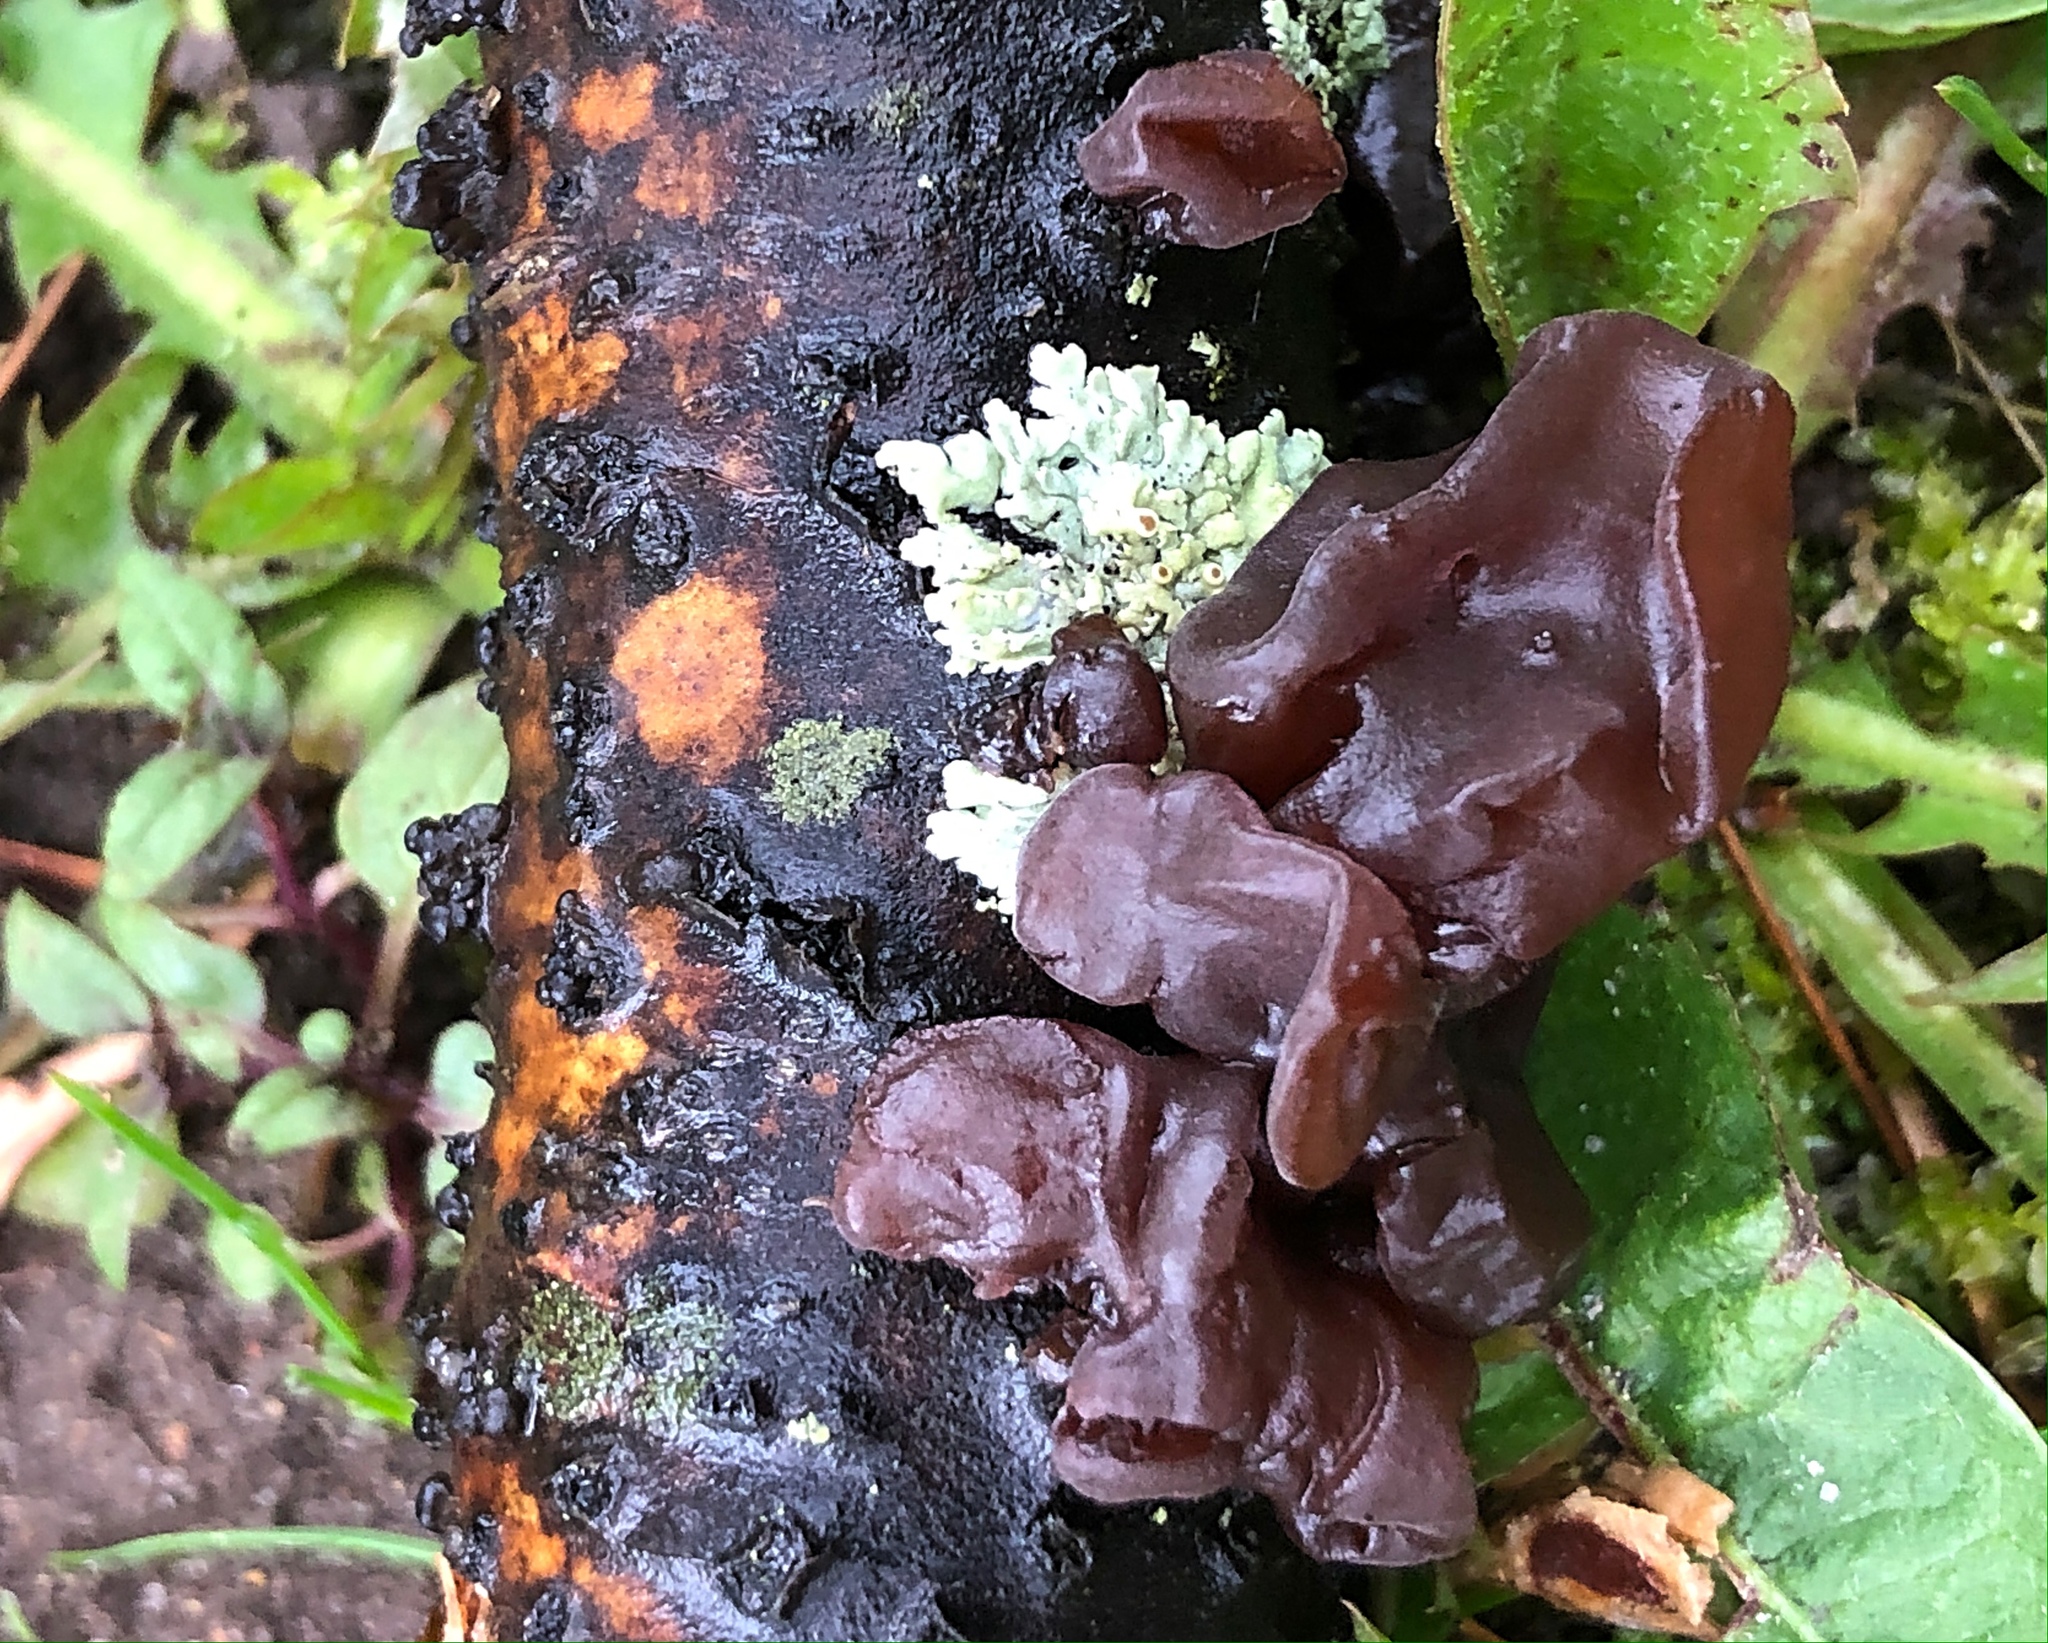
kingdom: Fungi
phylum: Basidiomycota
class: Agaricomycetes
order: Auriculariales
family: Auriculariaceae
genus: Exidia
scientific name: Exidia
